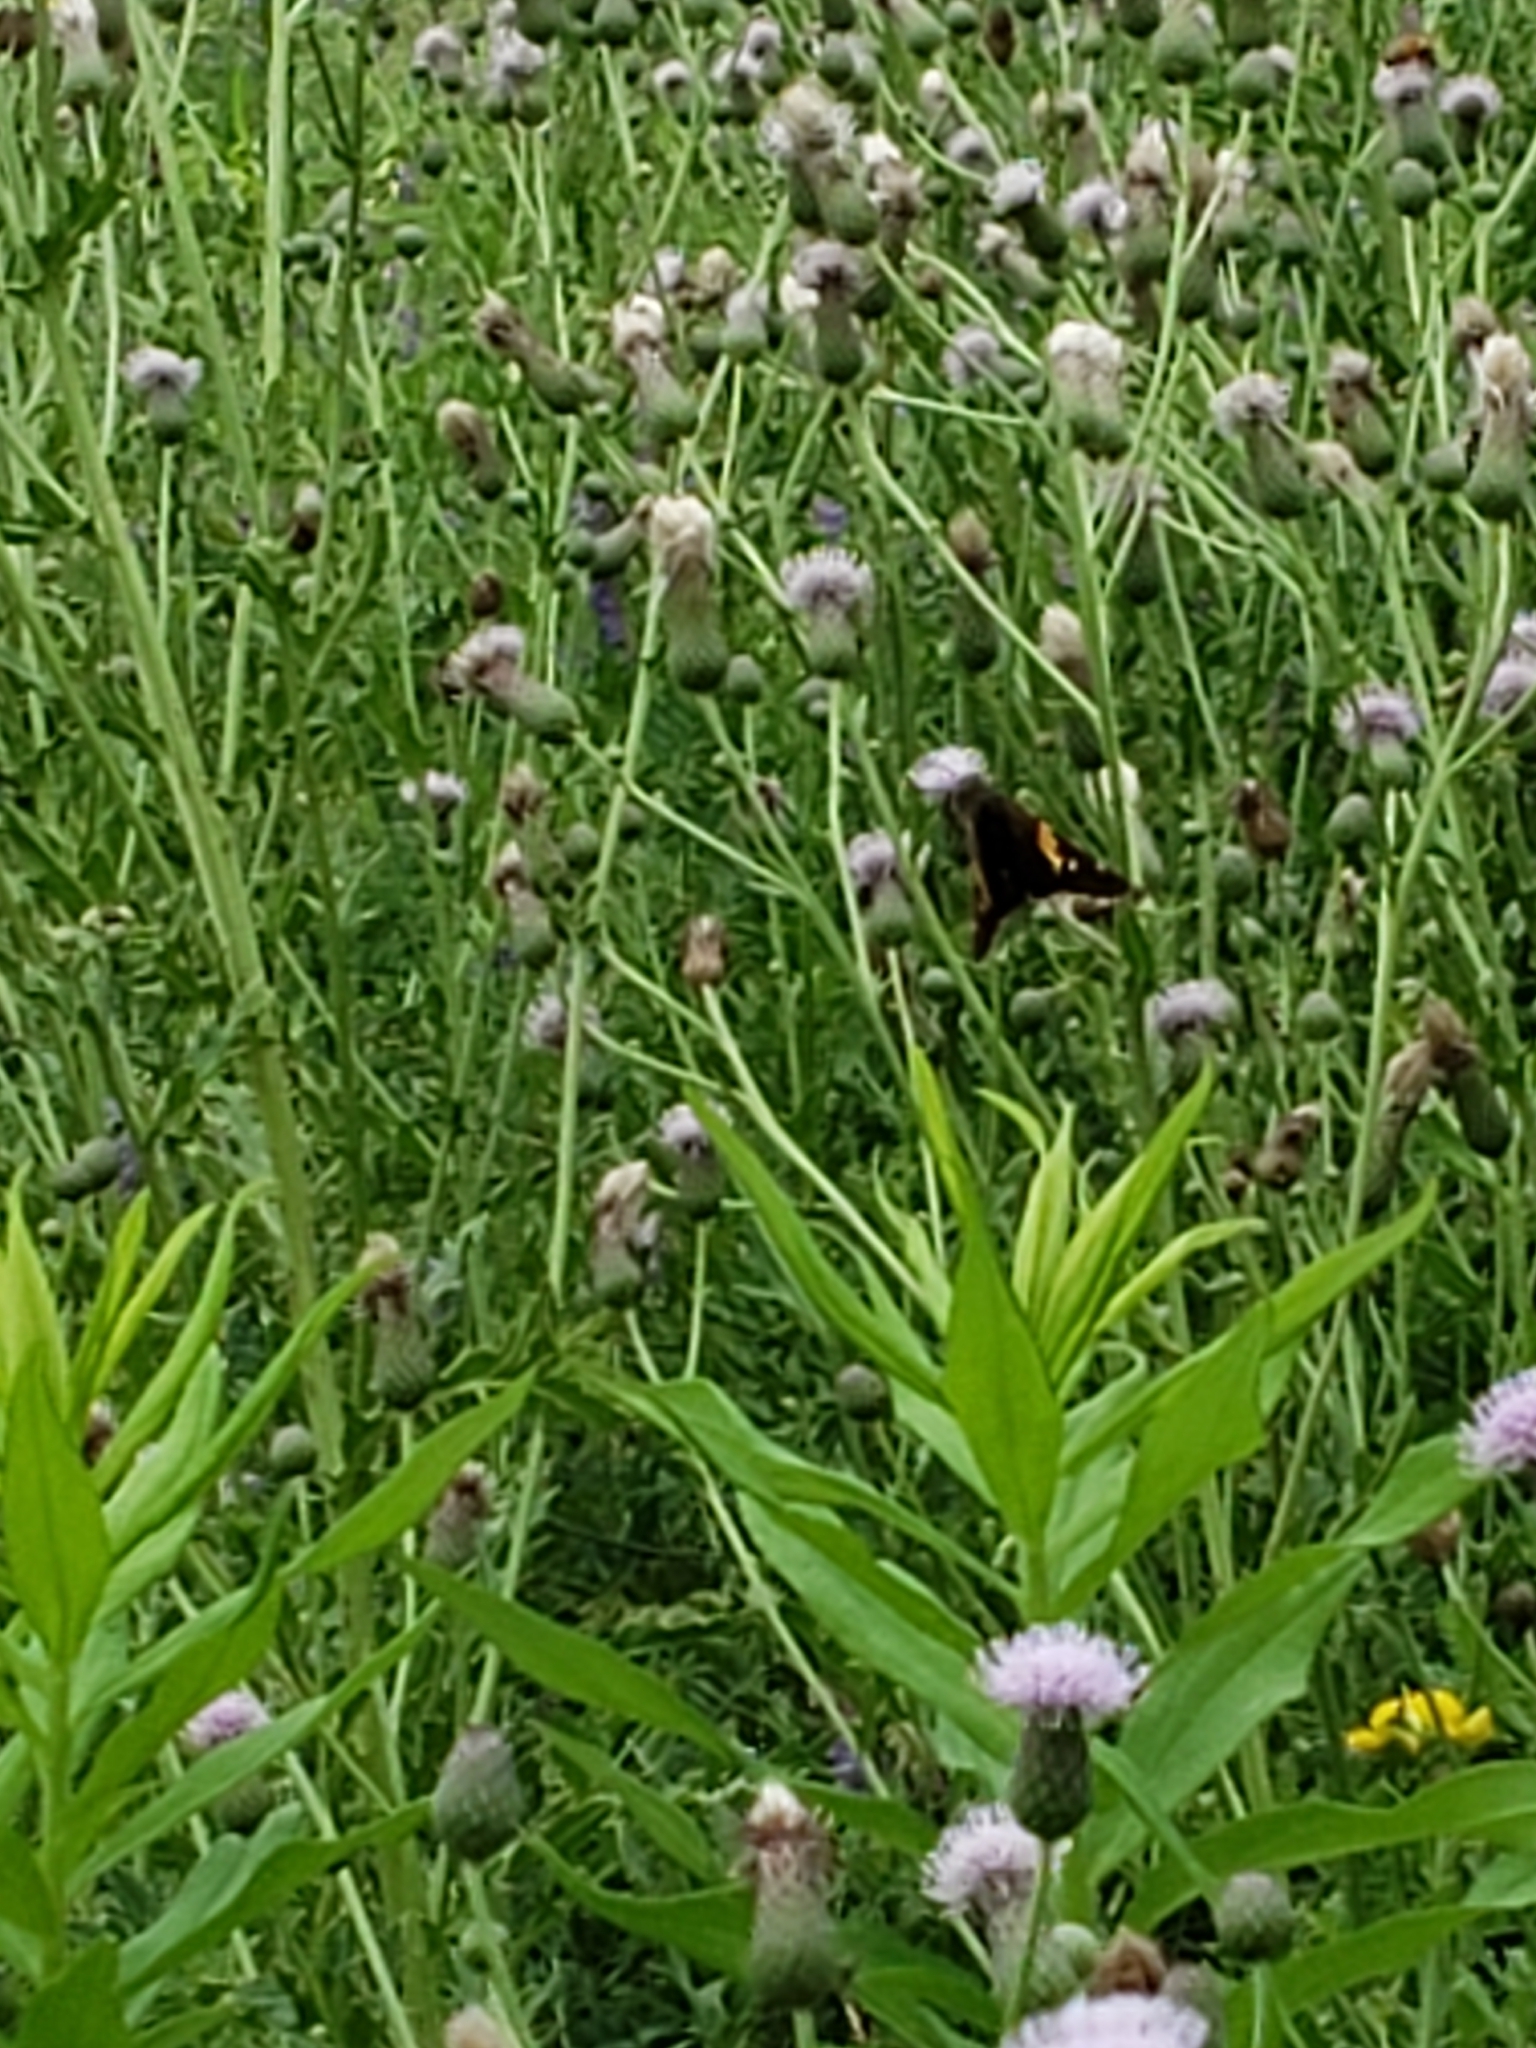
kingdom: Animalia
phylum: Arthropoda
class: Insecta
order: Lepidoptera
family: Hesperiidae
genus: Epargyreus
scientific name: Epargyreus clarus
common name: Silver-spotted skipper
